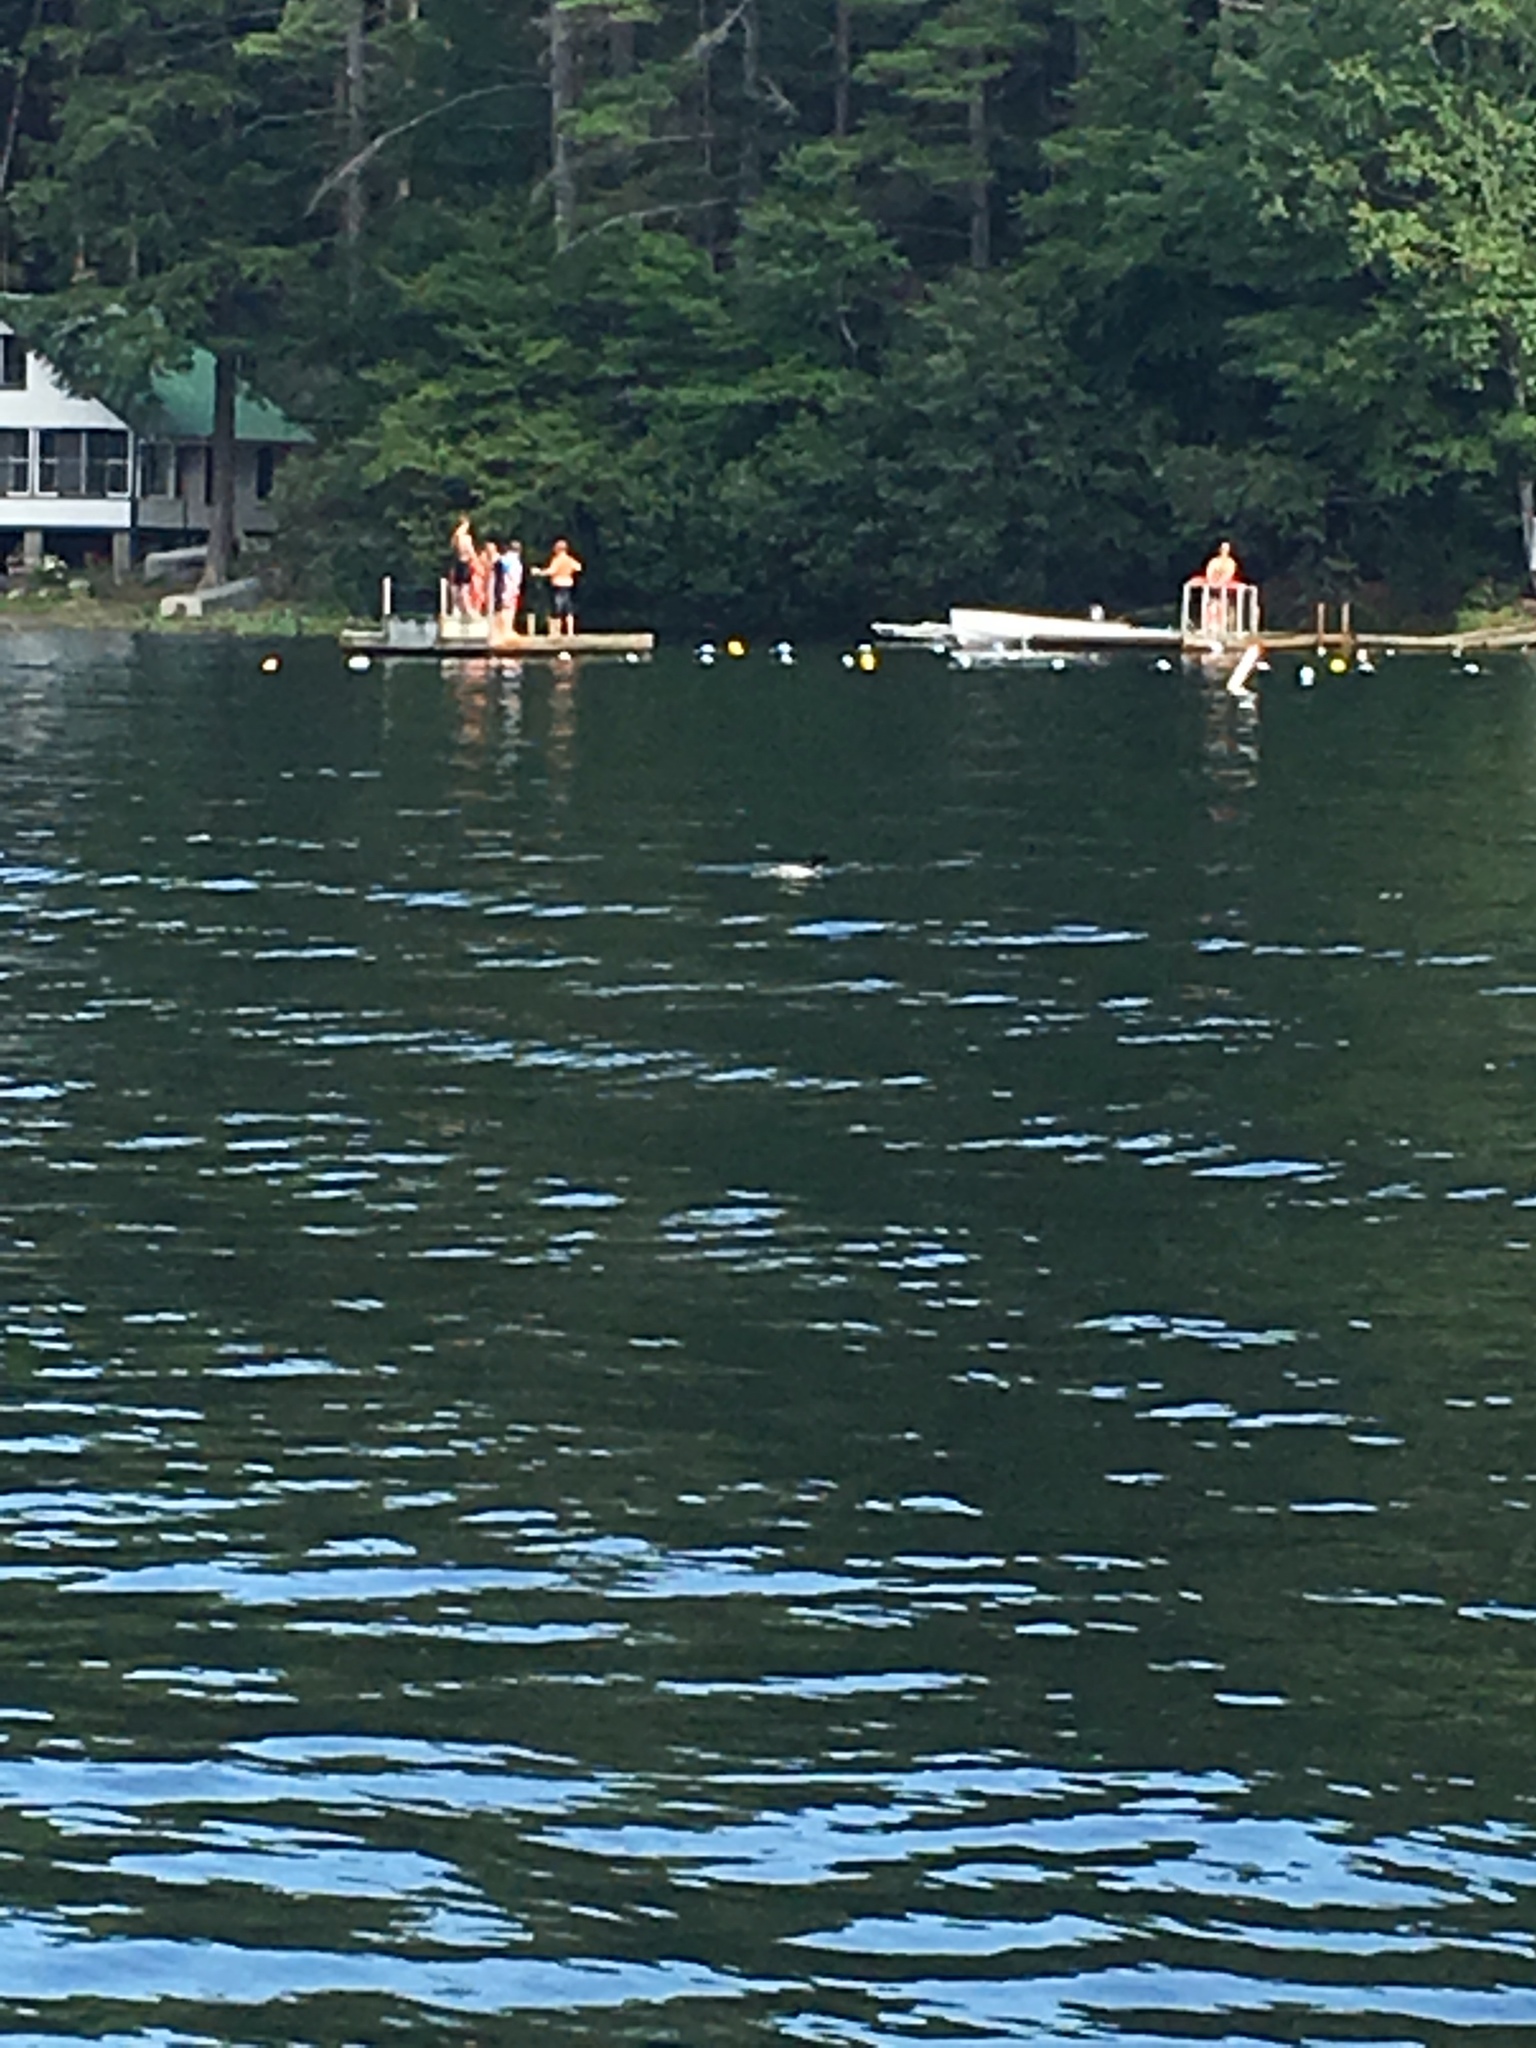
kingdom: Animalia
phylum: Chordata
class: Aves
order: Gaviiformes
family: Gaviidae
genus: Gavia
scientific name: Gavia immer
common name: Common loon
